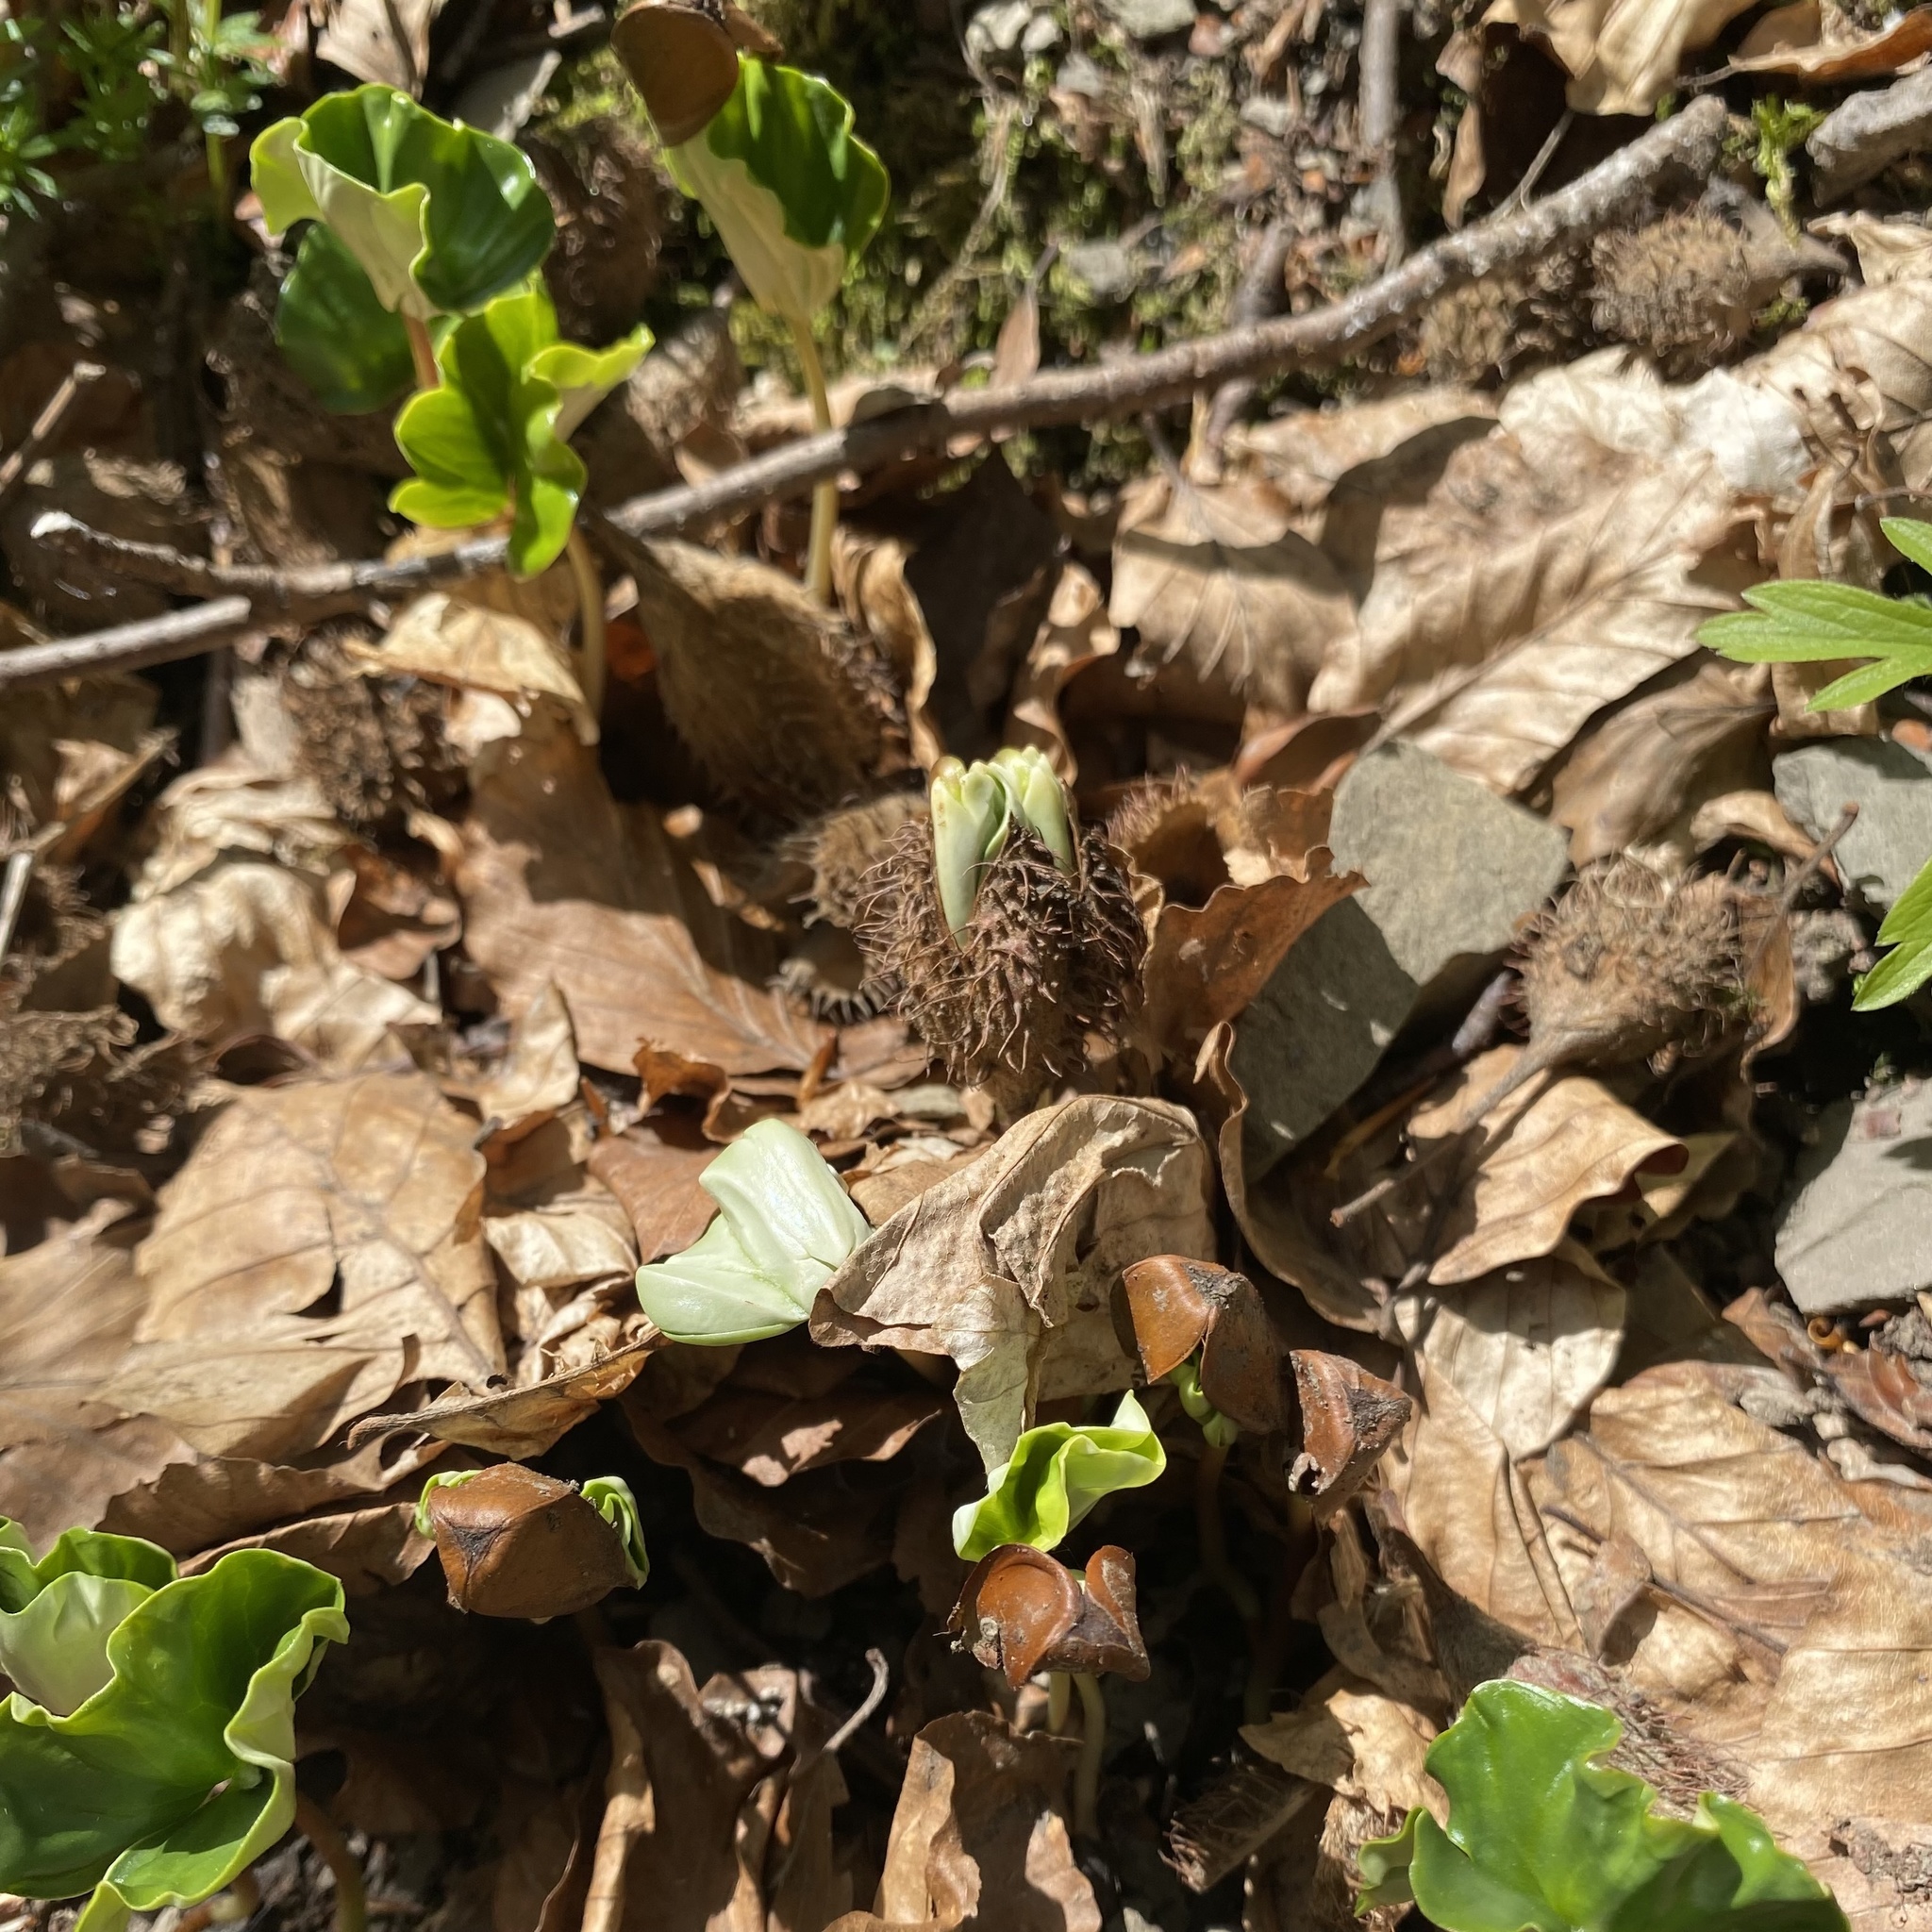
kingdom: Plantae
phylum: Tracheophyta
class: Magnoliopsida
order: Fagales
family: Fagaceae
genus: Fagus
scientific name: Fagus sylvatica
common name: Beech
